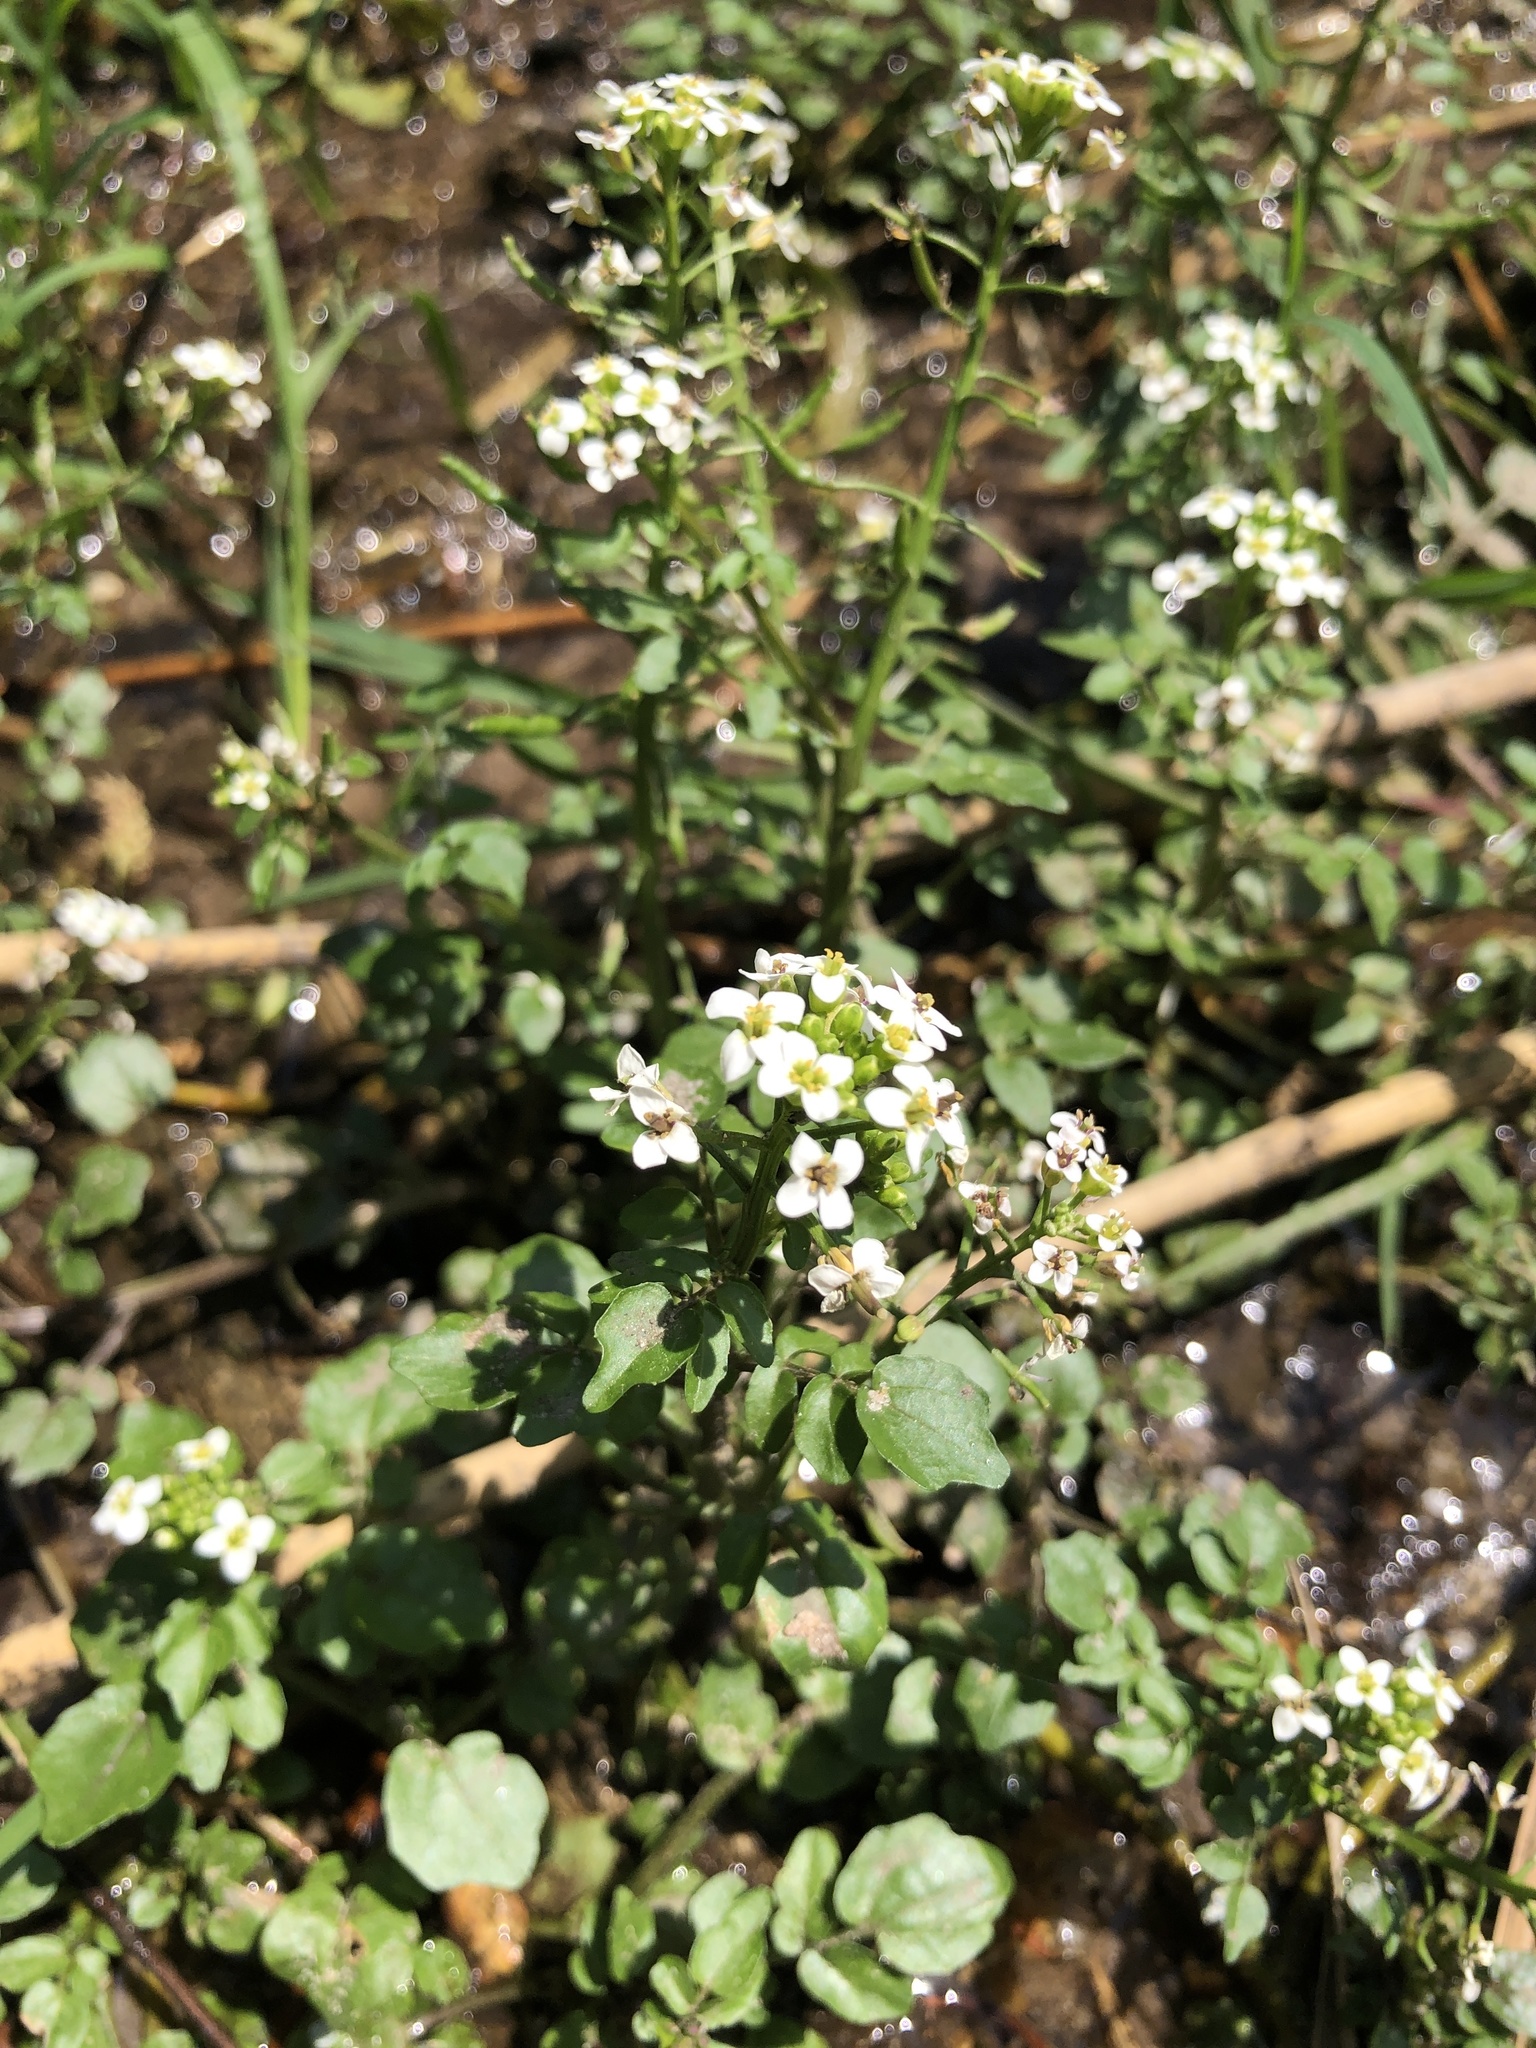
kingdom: Plantae
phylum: Tracheophyta
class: Magnoliopsida
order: Brassicales
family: Brassicaceae
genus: Nasturtium
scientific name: Nasturtium officinale
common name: Watercress
